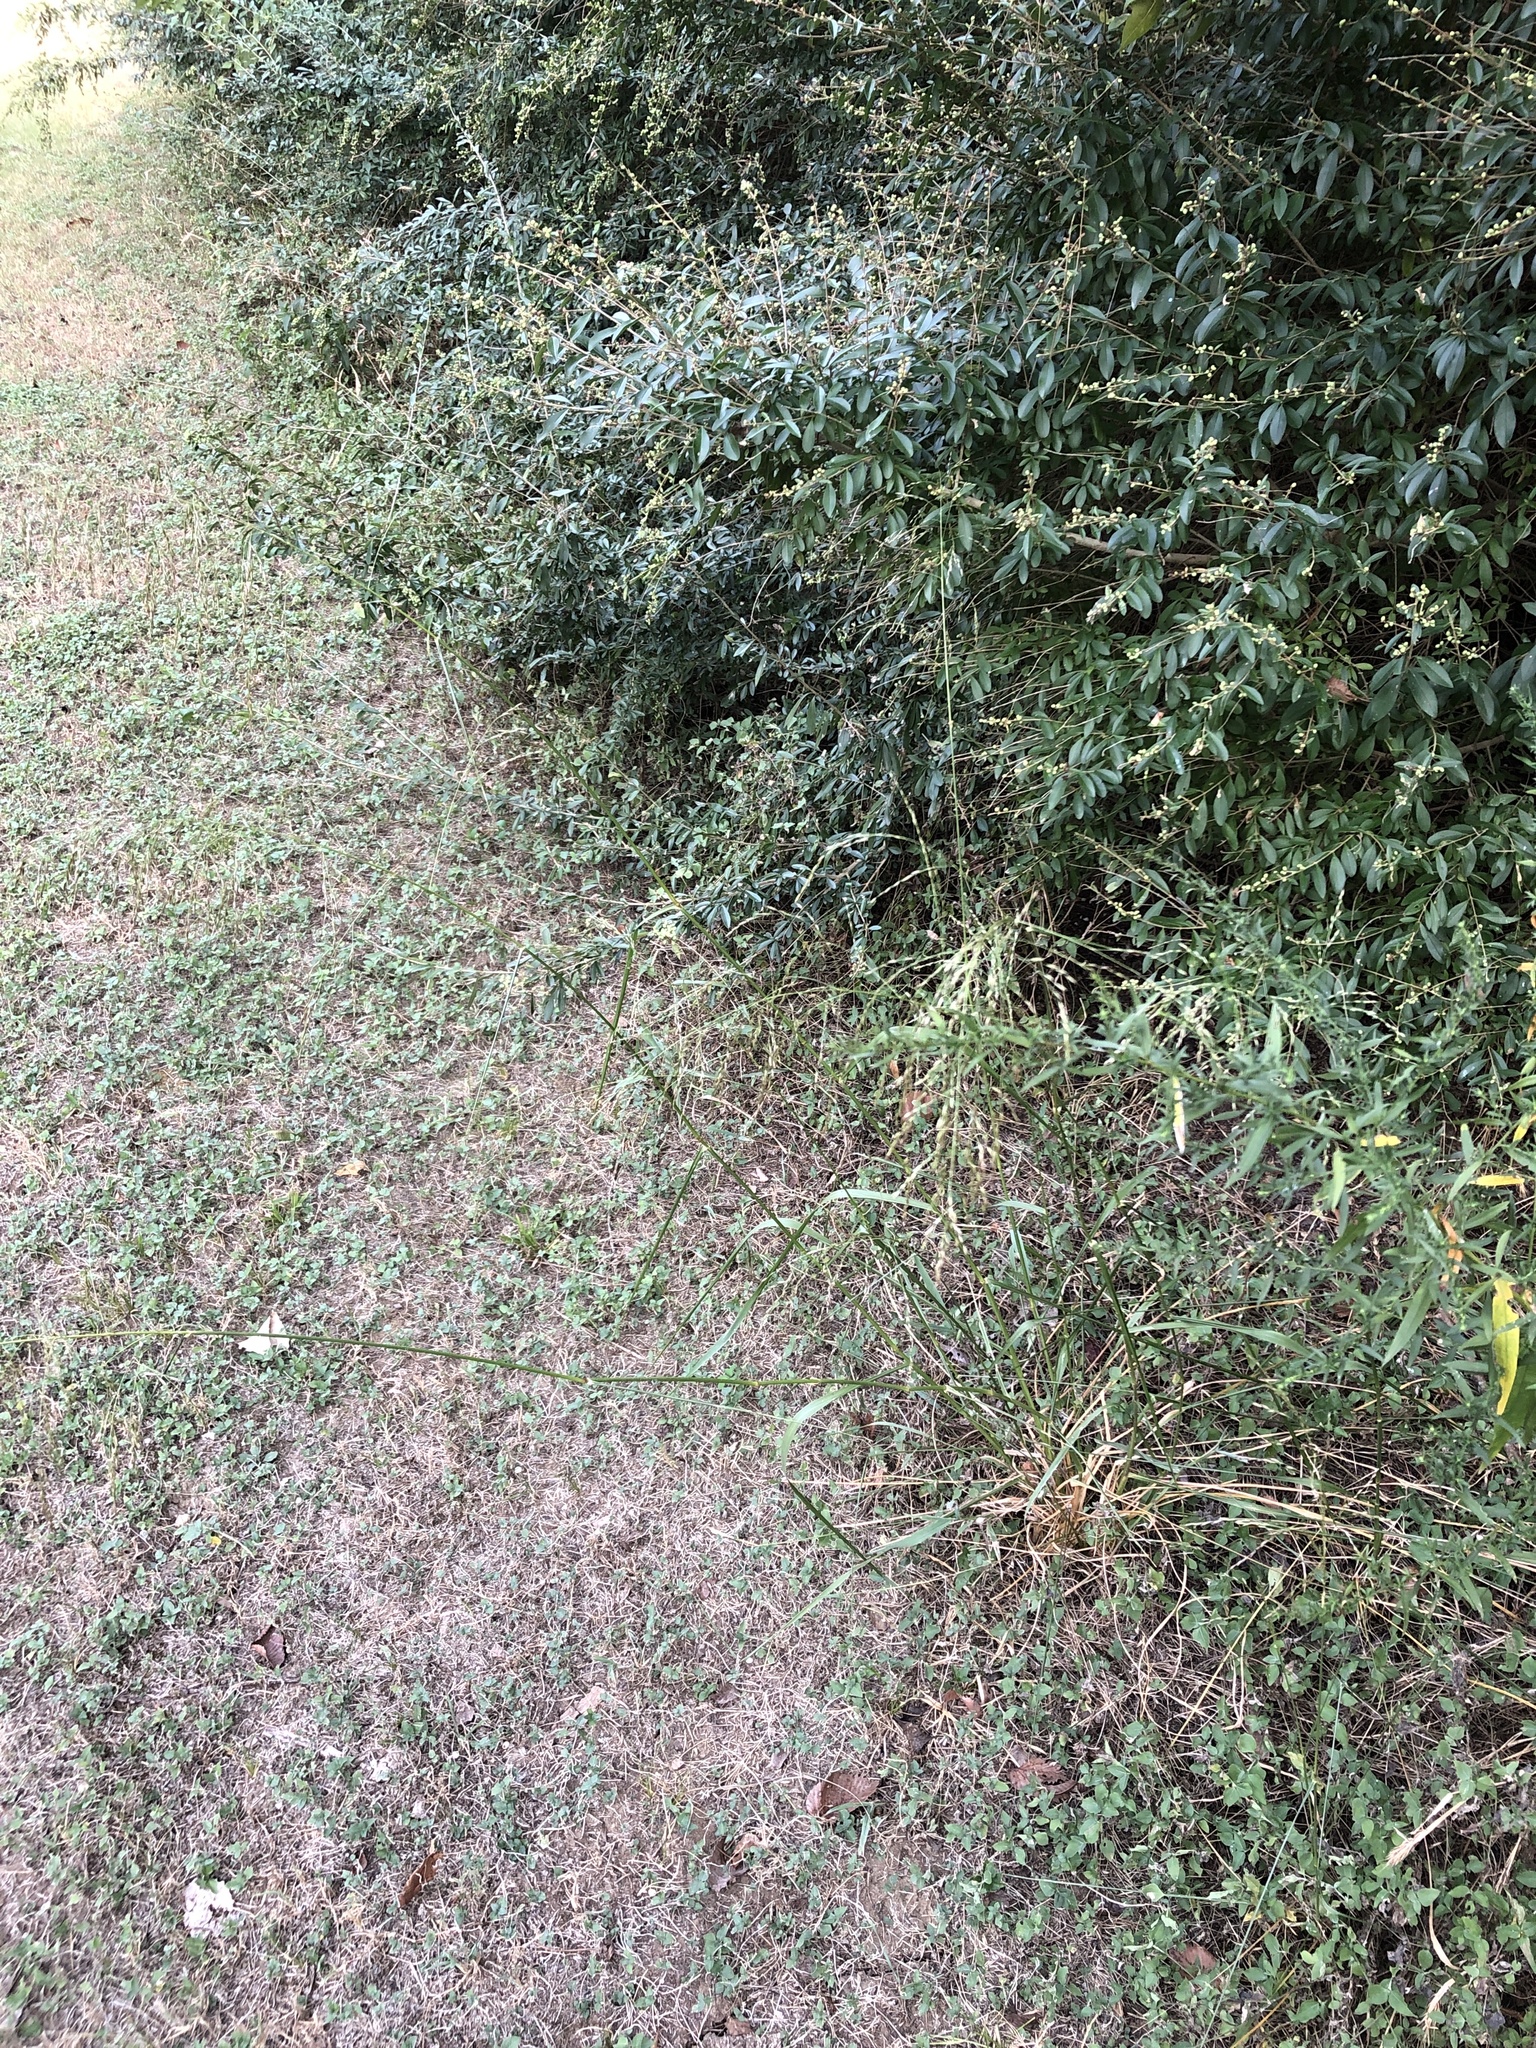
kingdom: Plantae
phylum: Tracheophyta
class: Liliopsida
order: Poales
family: Poaceae
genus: Tridens
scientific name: Tridens flavus
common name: Purpletop
